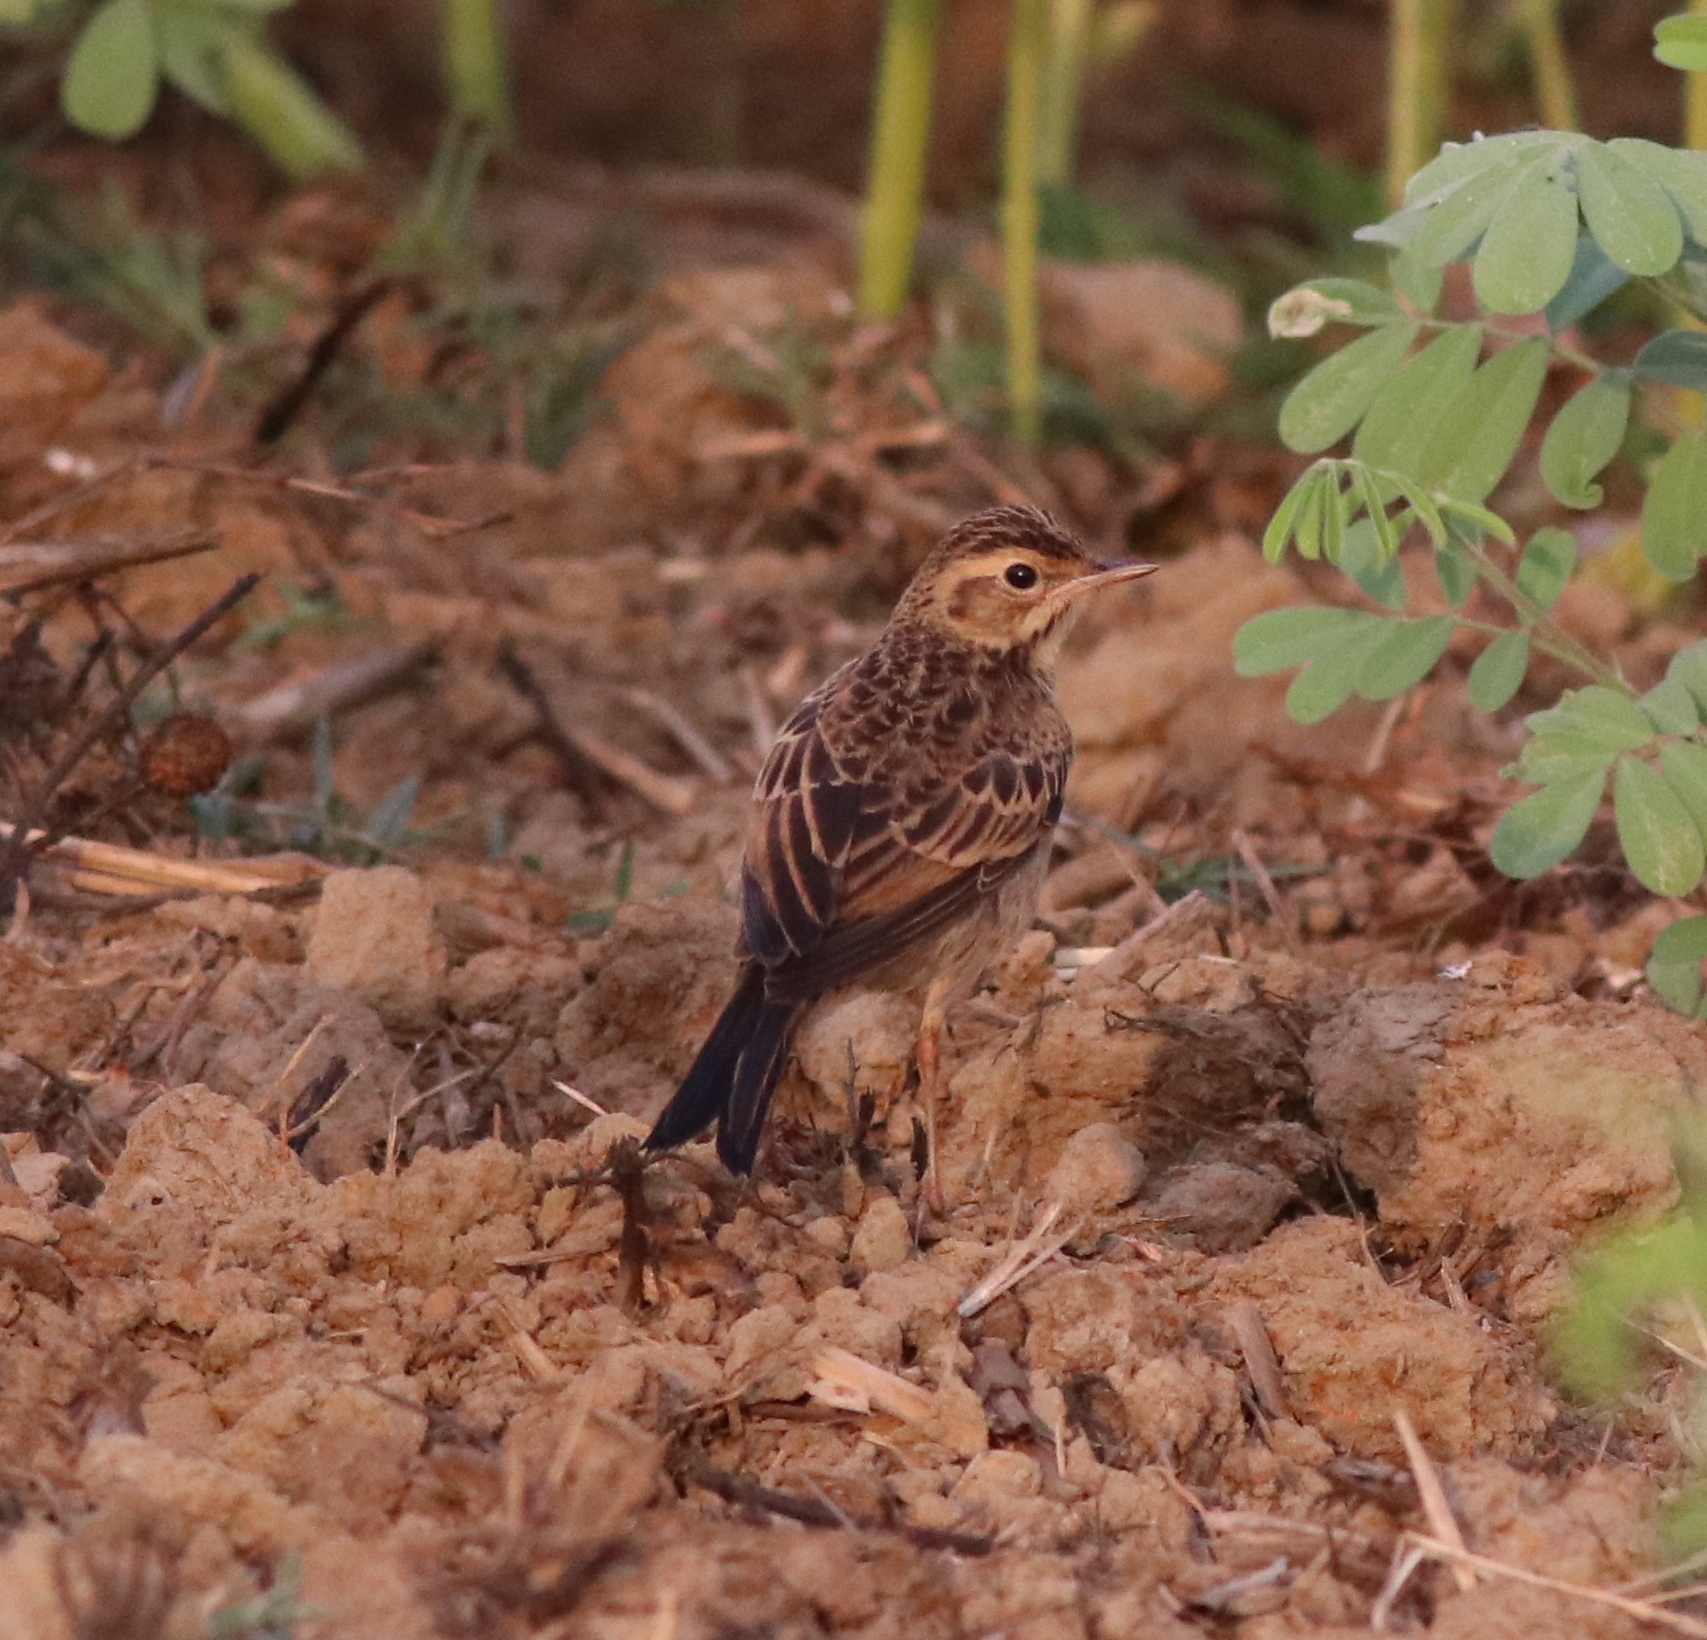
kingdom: Animalia
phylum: Chordata
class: Aves
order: Passeriformes
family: Motacillidae
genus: Anthus
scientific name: Anthus rufulus
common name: Paddyfield pipit
